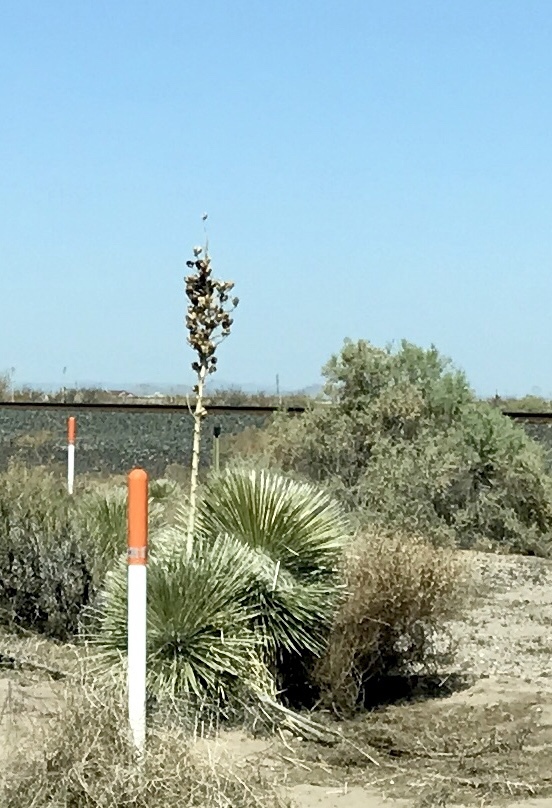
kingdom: Plantae
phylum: Tracheophyta
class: Liliopsida
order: Asparagales
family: Asparagaceae
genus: Yucca
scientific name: Yucca elata
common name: Palmella
